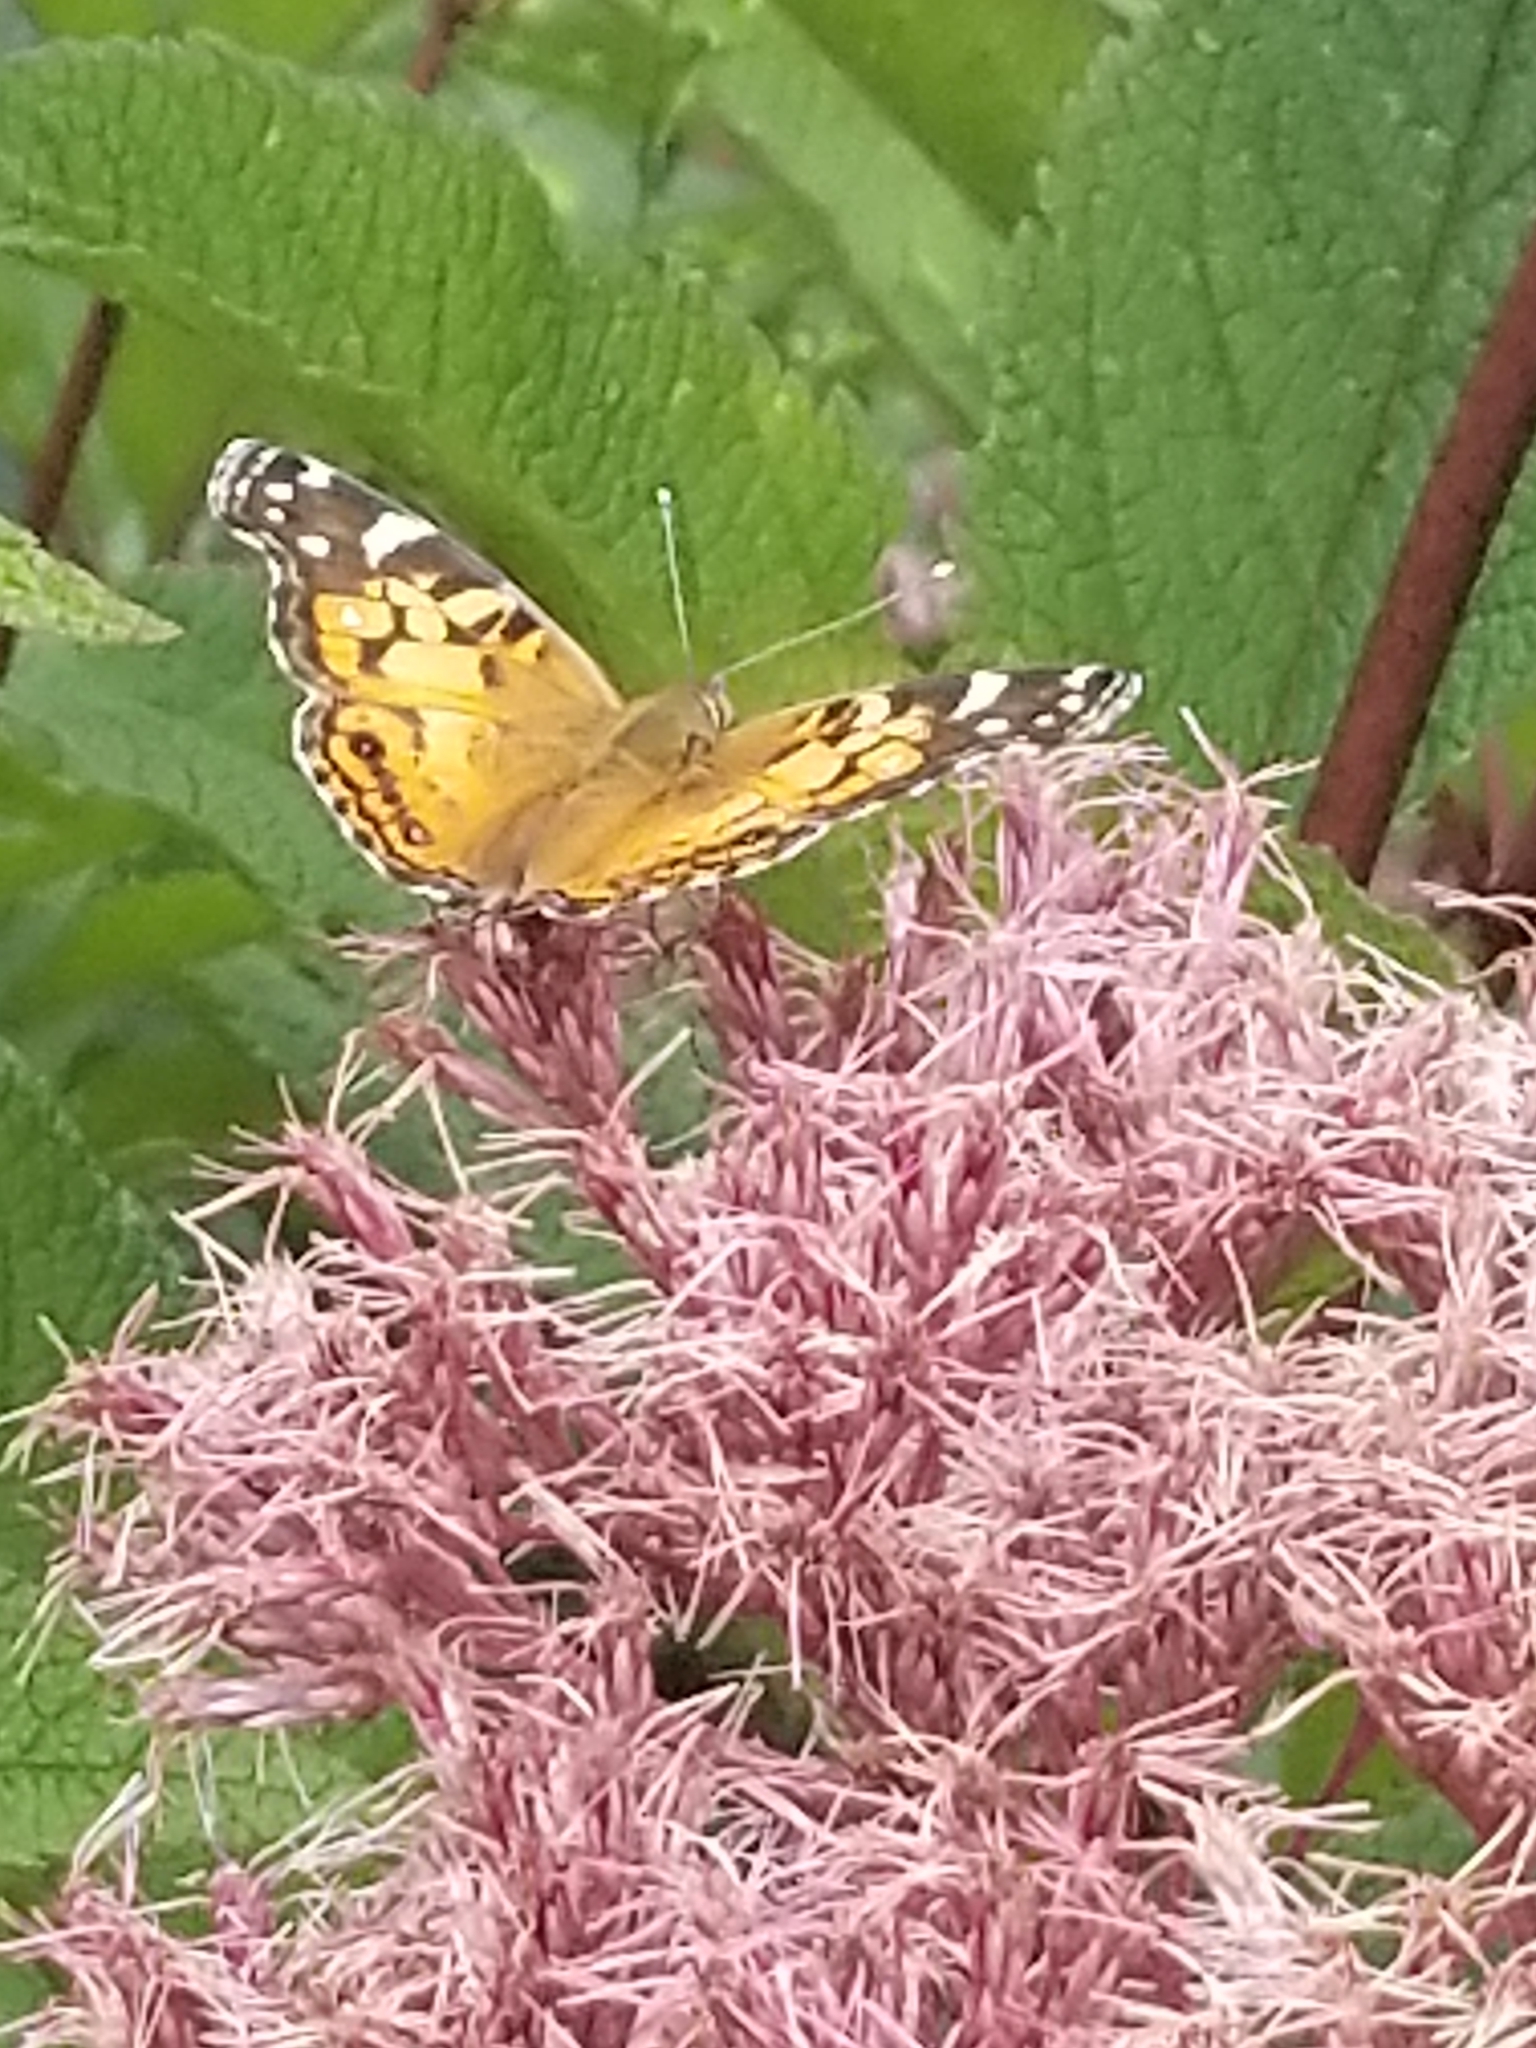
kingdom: Animalia
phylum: Arthropoda
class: Insecta
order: Lepidoptera
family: Nymphalidae
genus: Vanessa
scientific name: Vanessa virginiensis
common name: American lady
